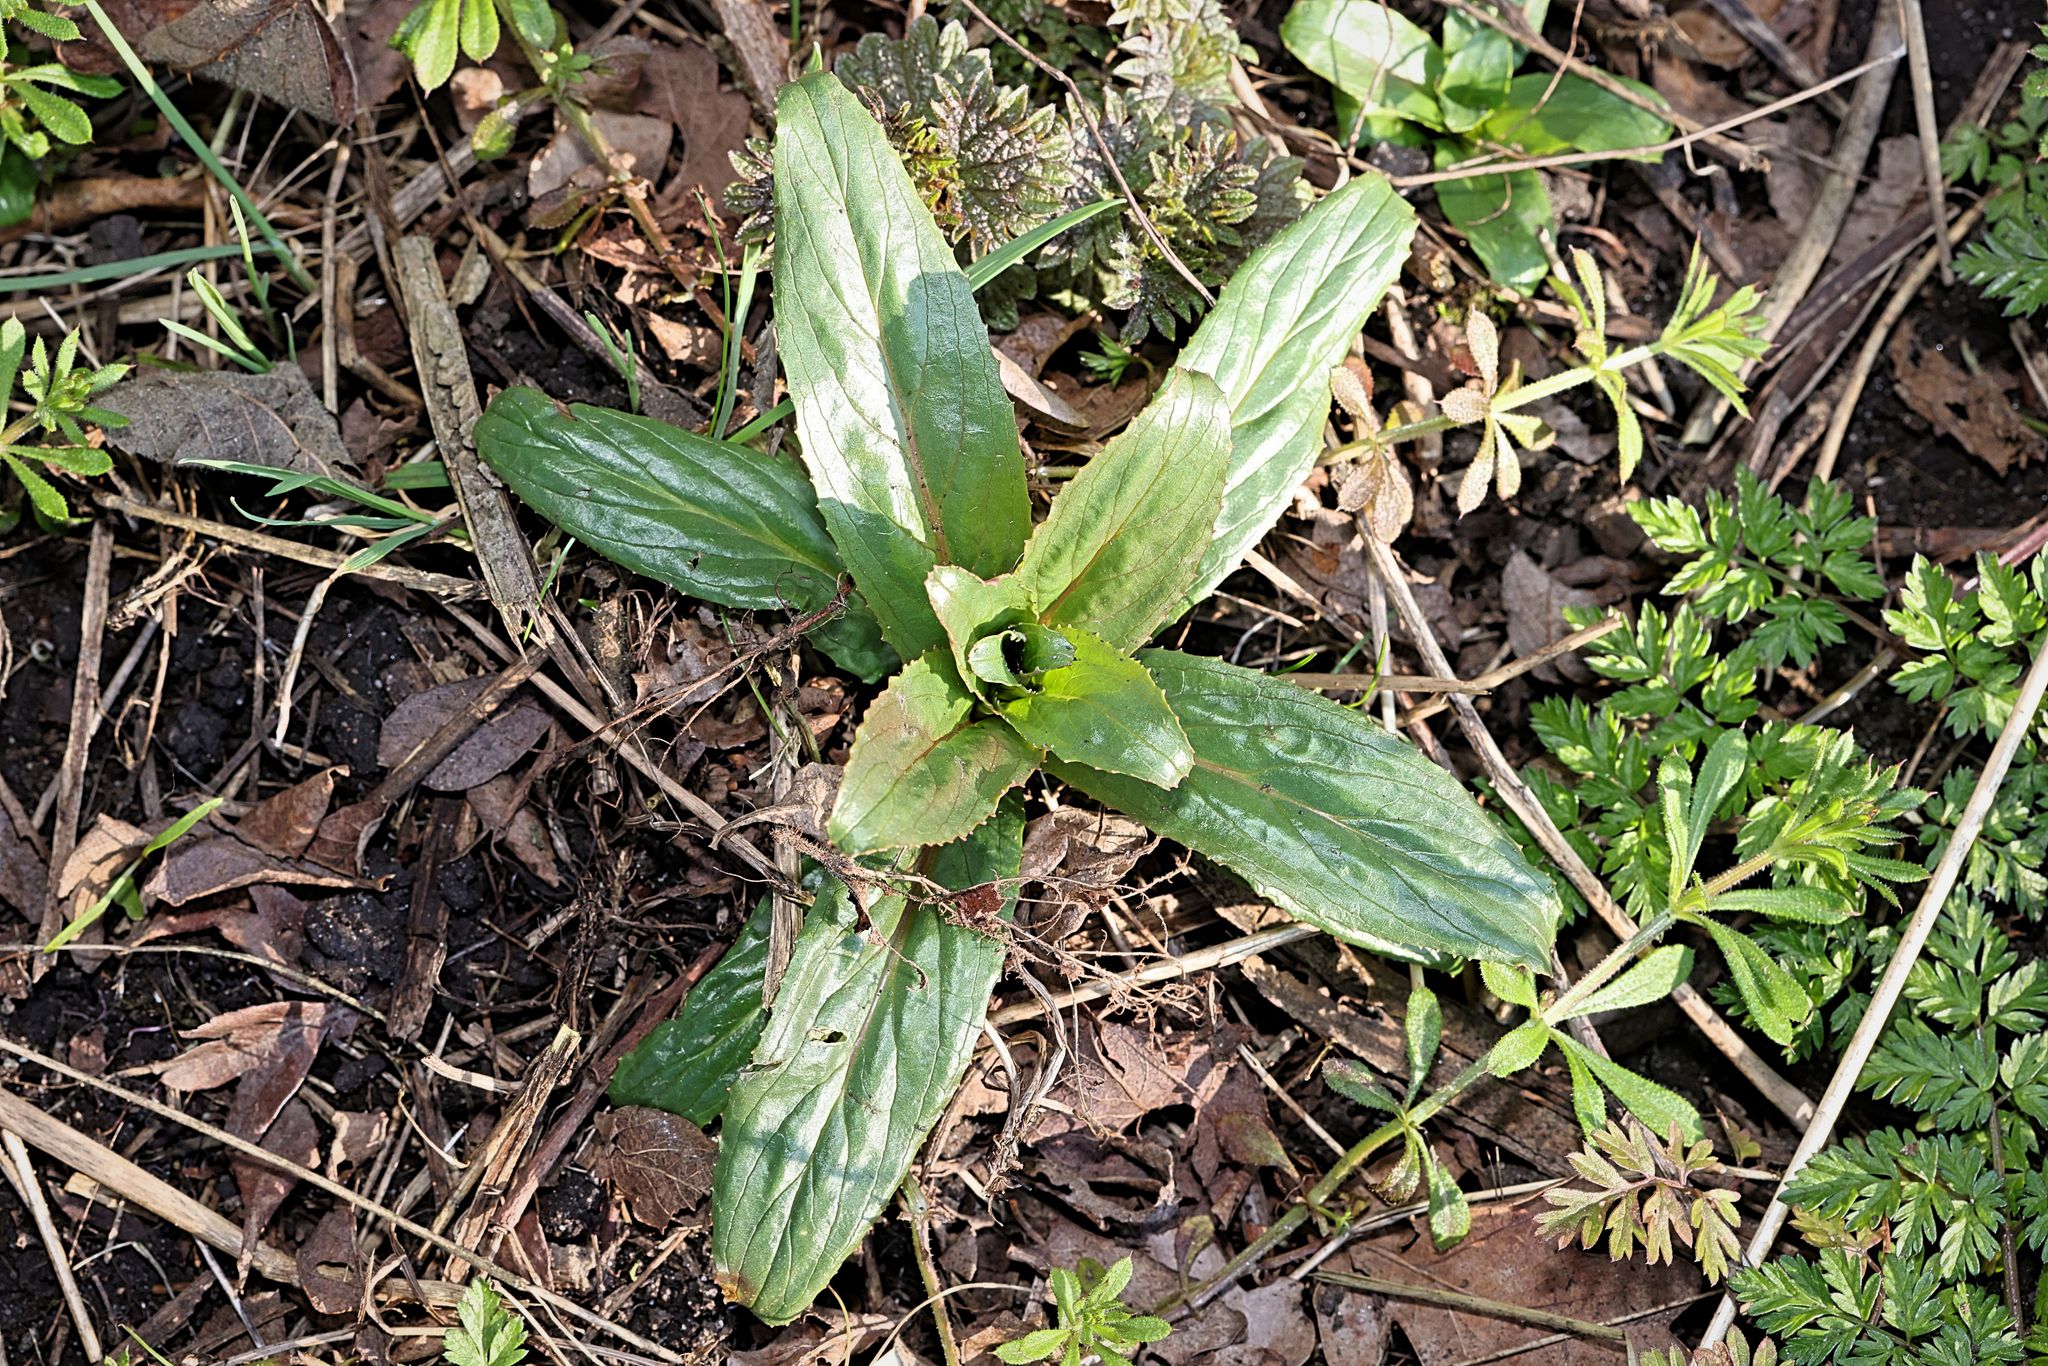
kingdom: Plantae
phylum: Tracheophyta
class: Magnoliopsida
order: Myrtales
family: Onagraceae
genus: Epilobium
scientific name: Epilobium hirsutum
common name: Great willowherb
